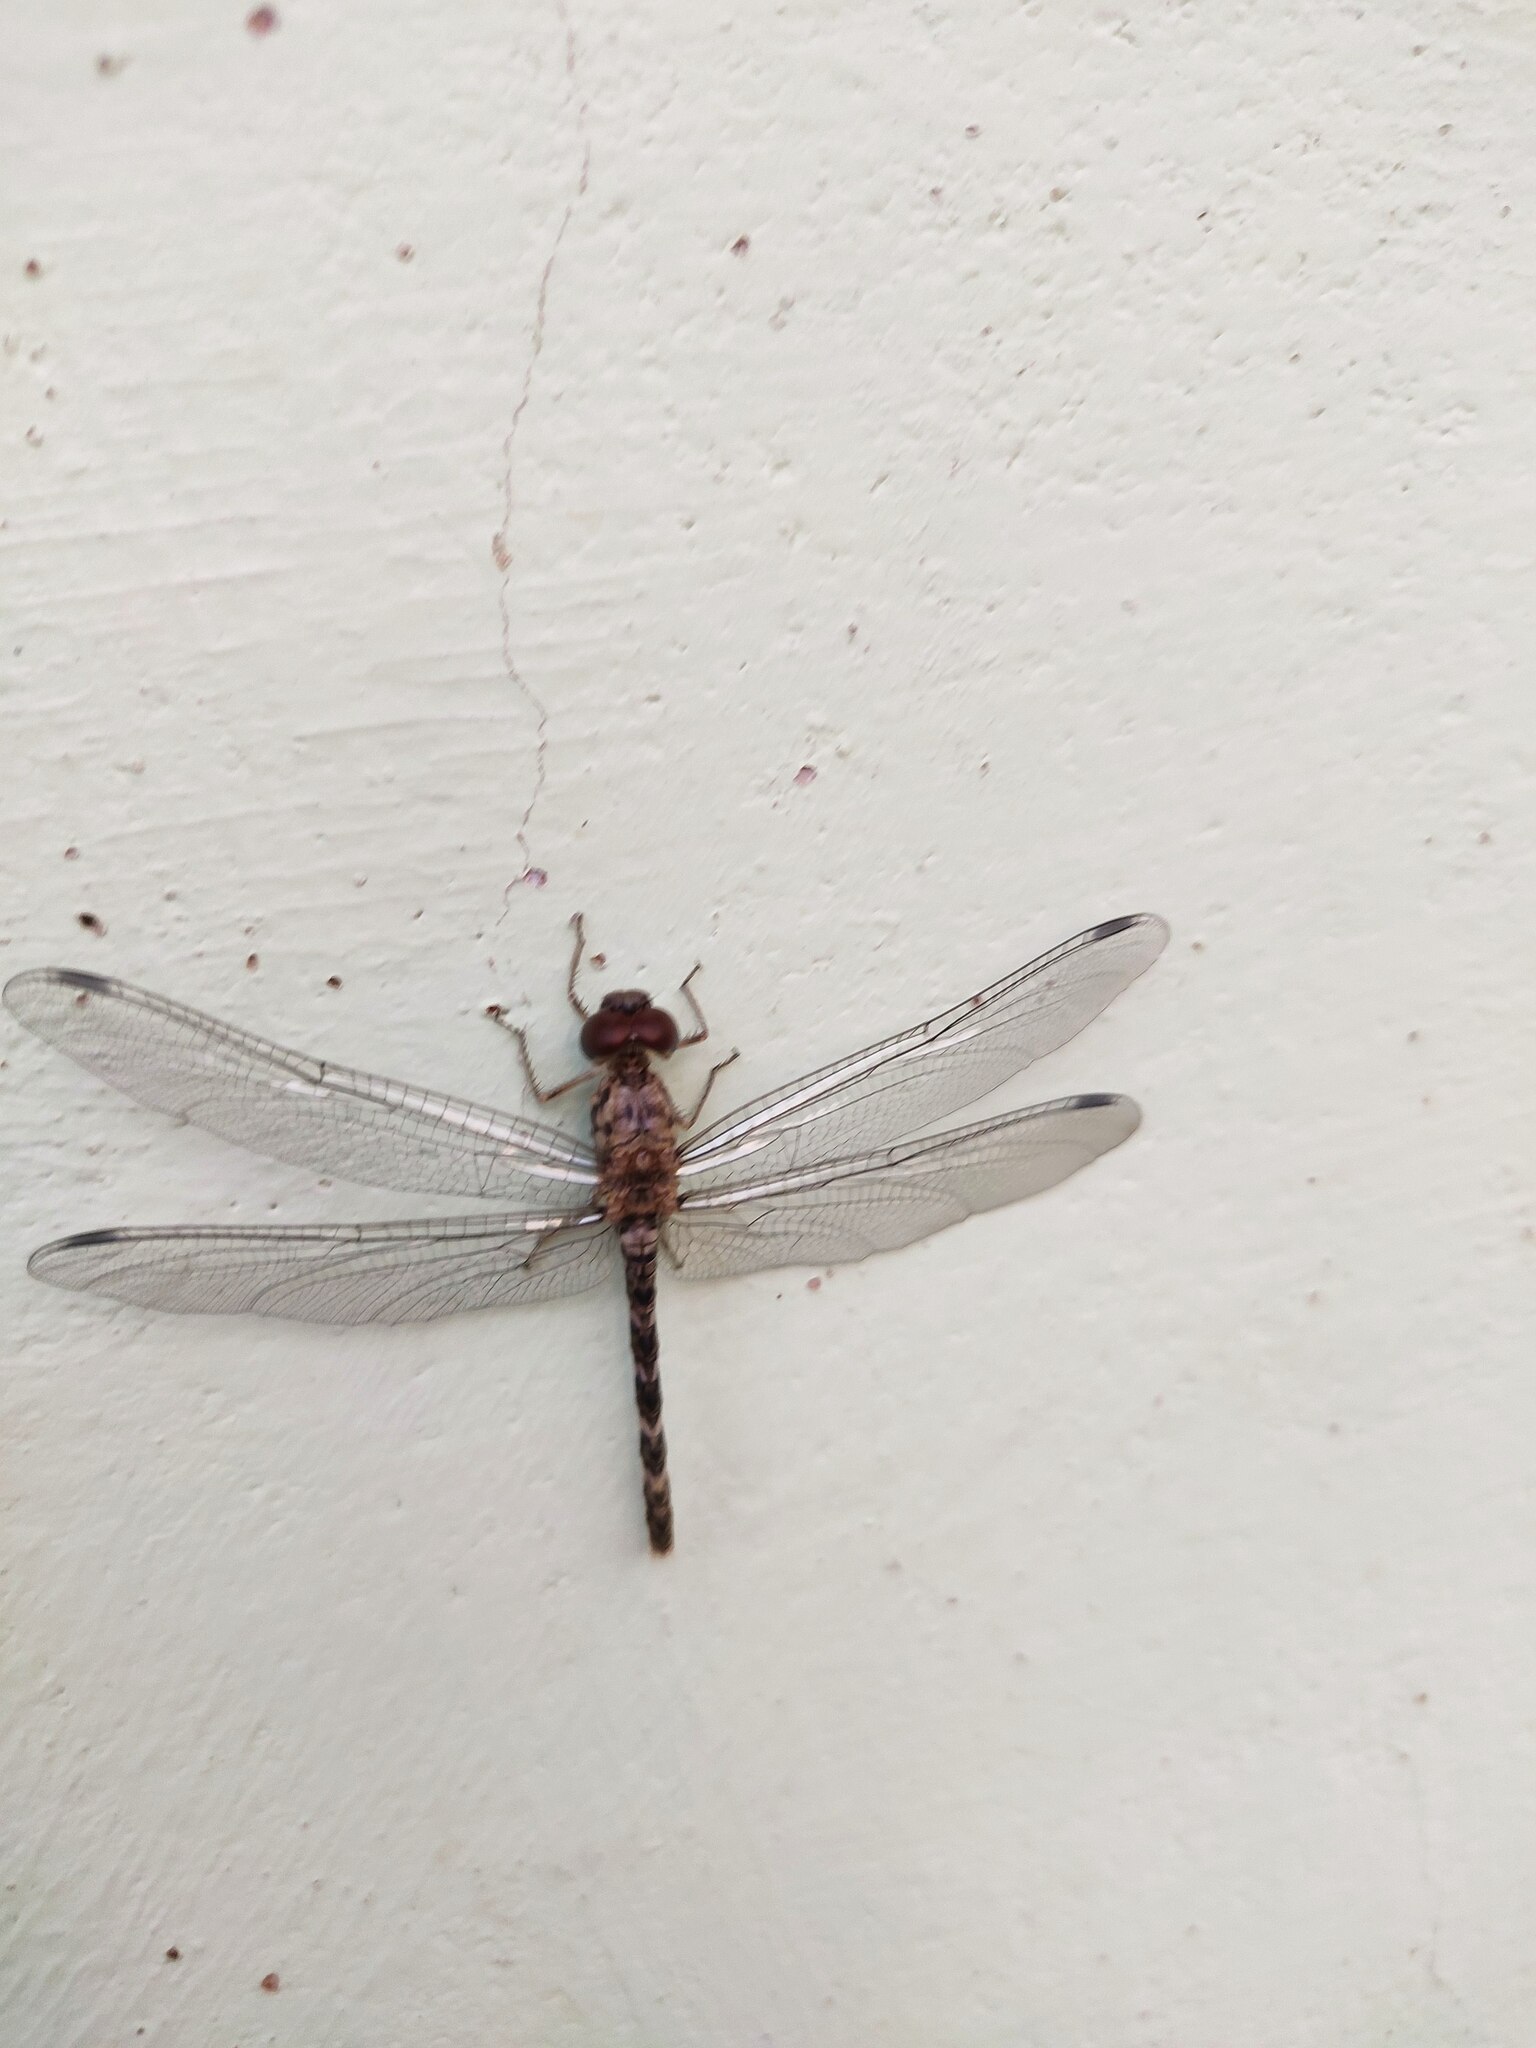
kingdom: Animalia
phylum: Arthropoda
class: Insecta
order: Odonata
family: Libellulidae
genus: Bradinopyga
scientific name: Bradinopyga geminata
